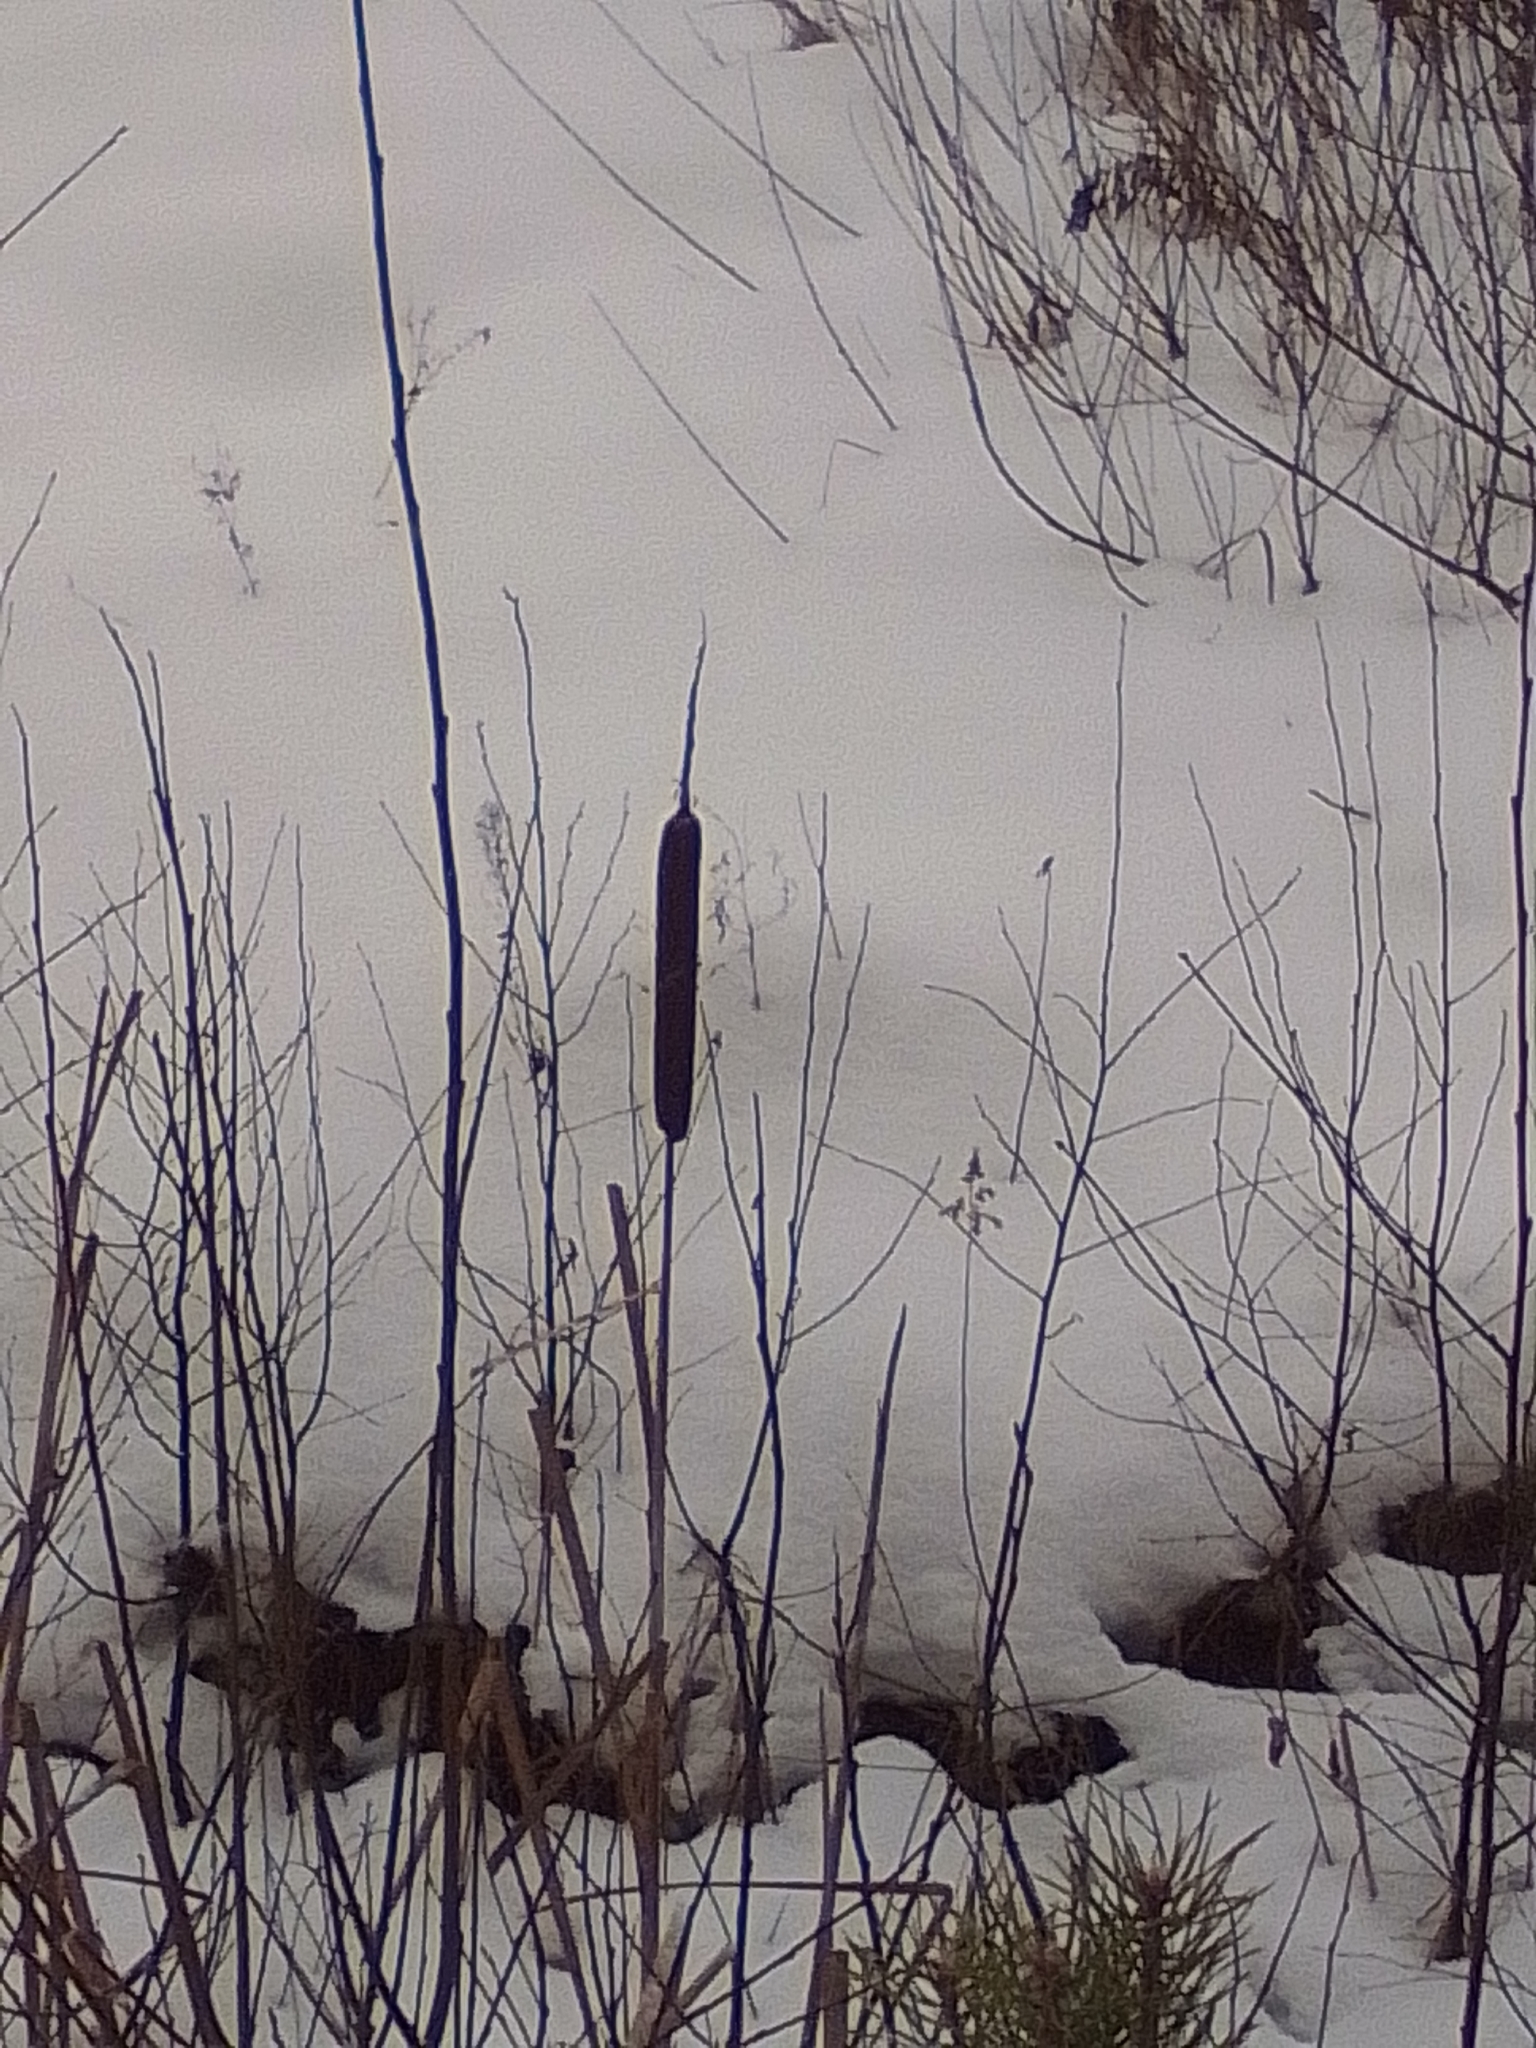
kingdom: Plantae
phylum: Tracheophyta
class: Liliopsida
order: Poales
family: Typhaceae
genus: Typha
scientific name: Typha latifolia
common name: Broadleaf cattail
